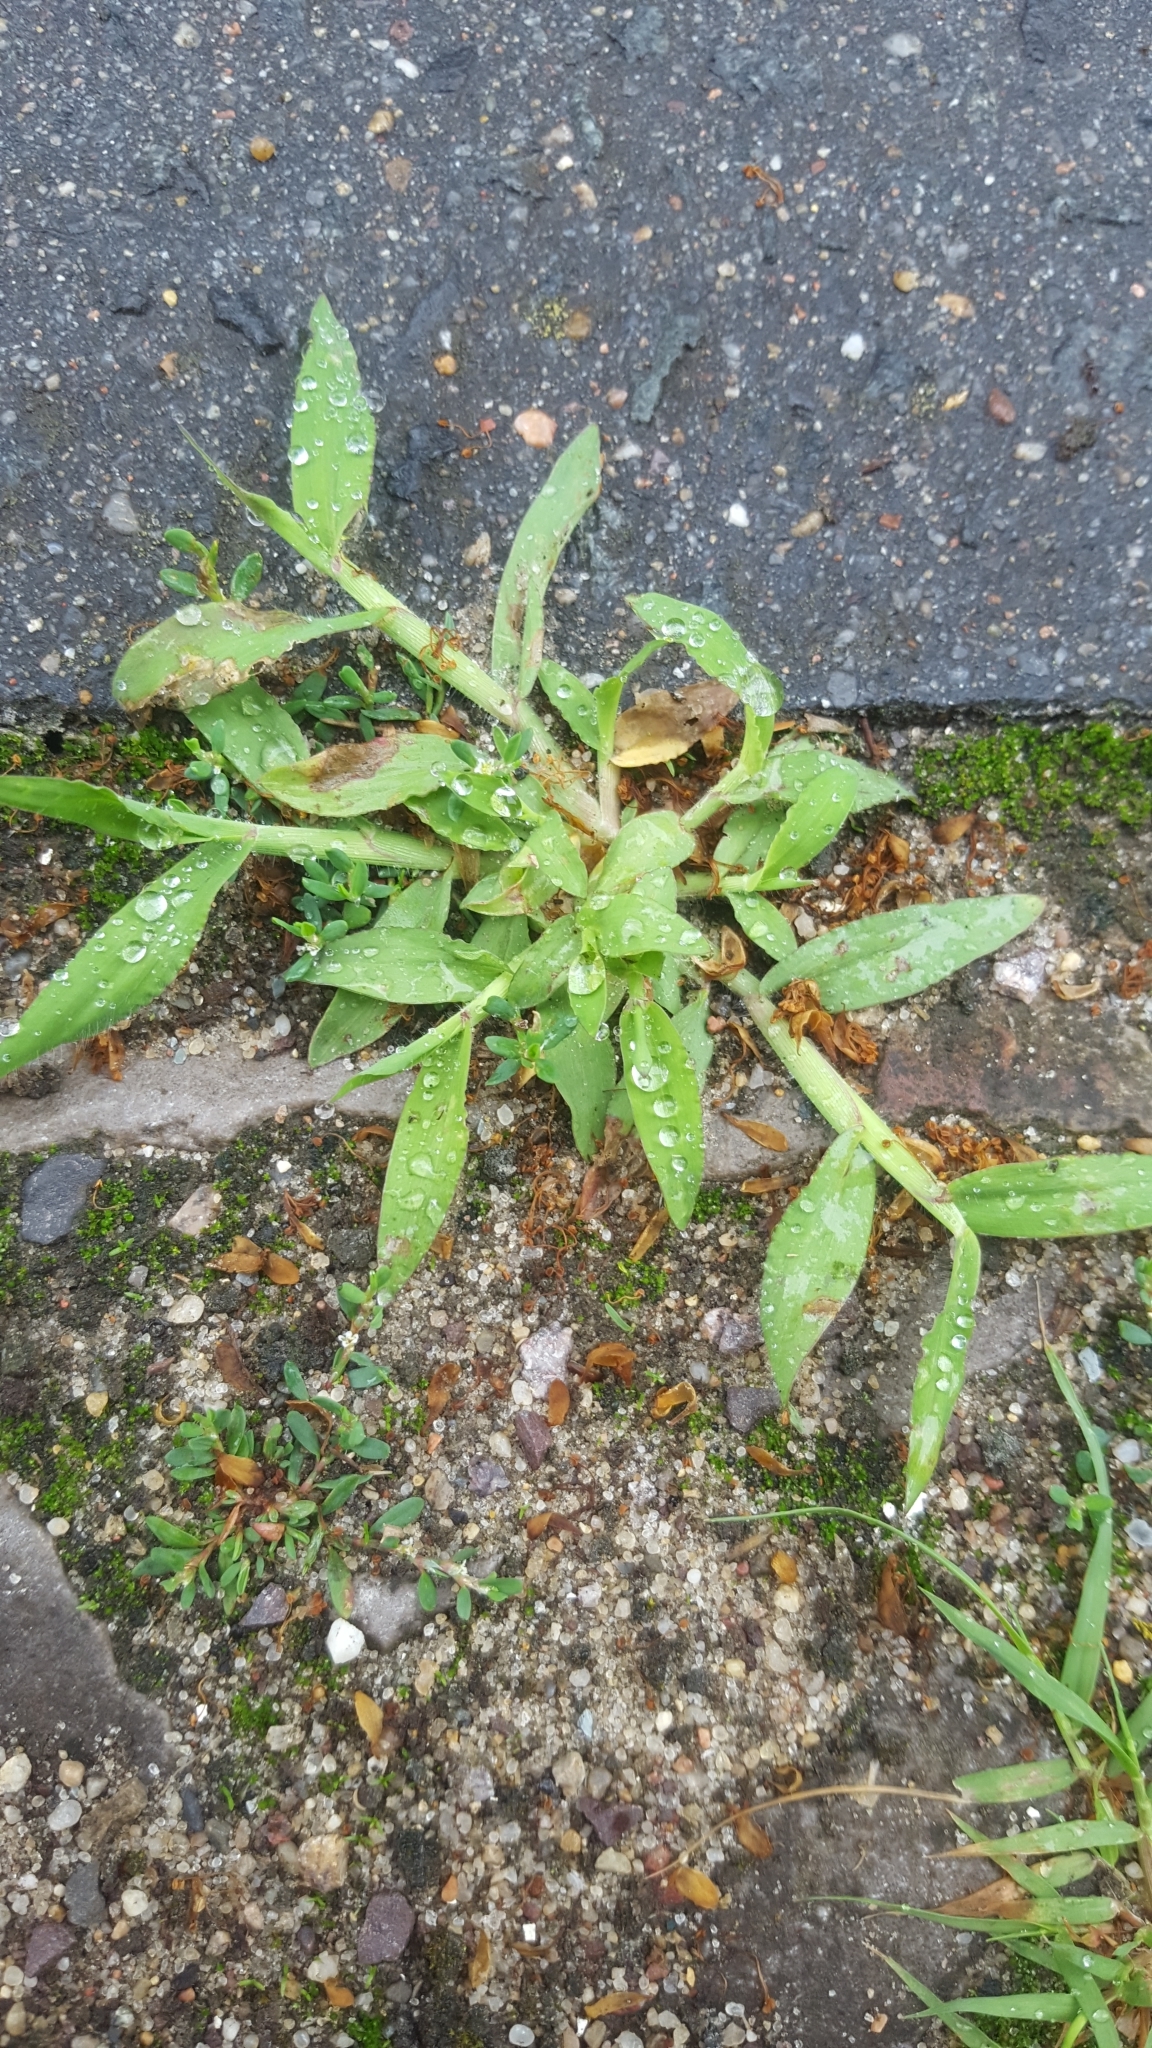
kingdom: Plantae
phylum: Tracheophyta
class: Liliopsida
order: Poales
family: Poaceae
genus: Digitaria
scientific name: Digitaria sanguinalis
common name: Hairy crabgrass
